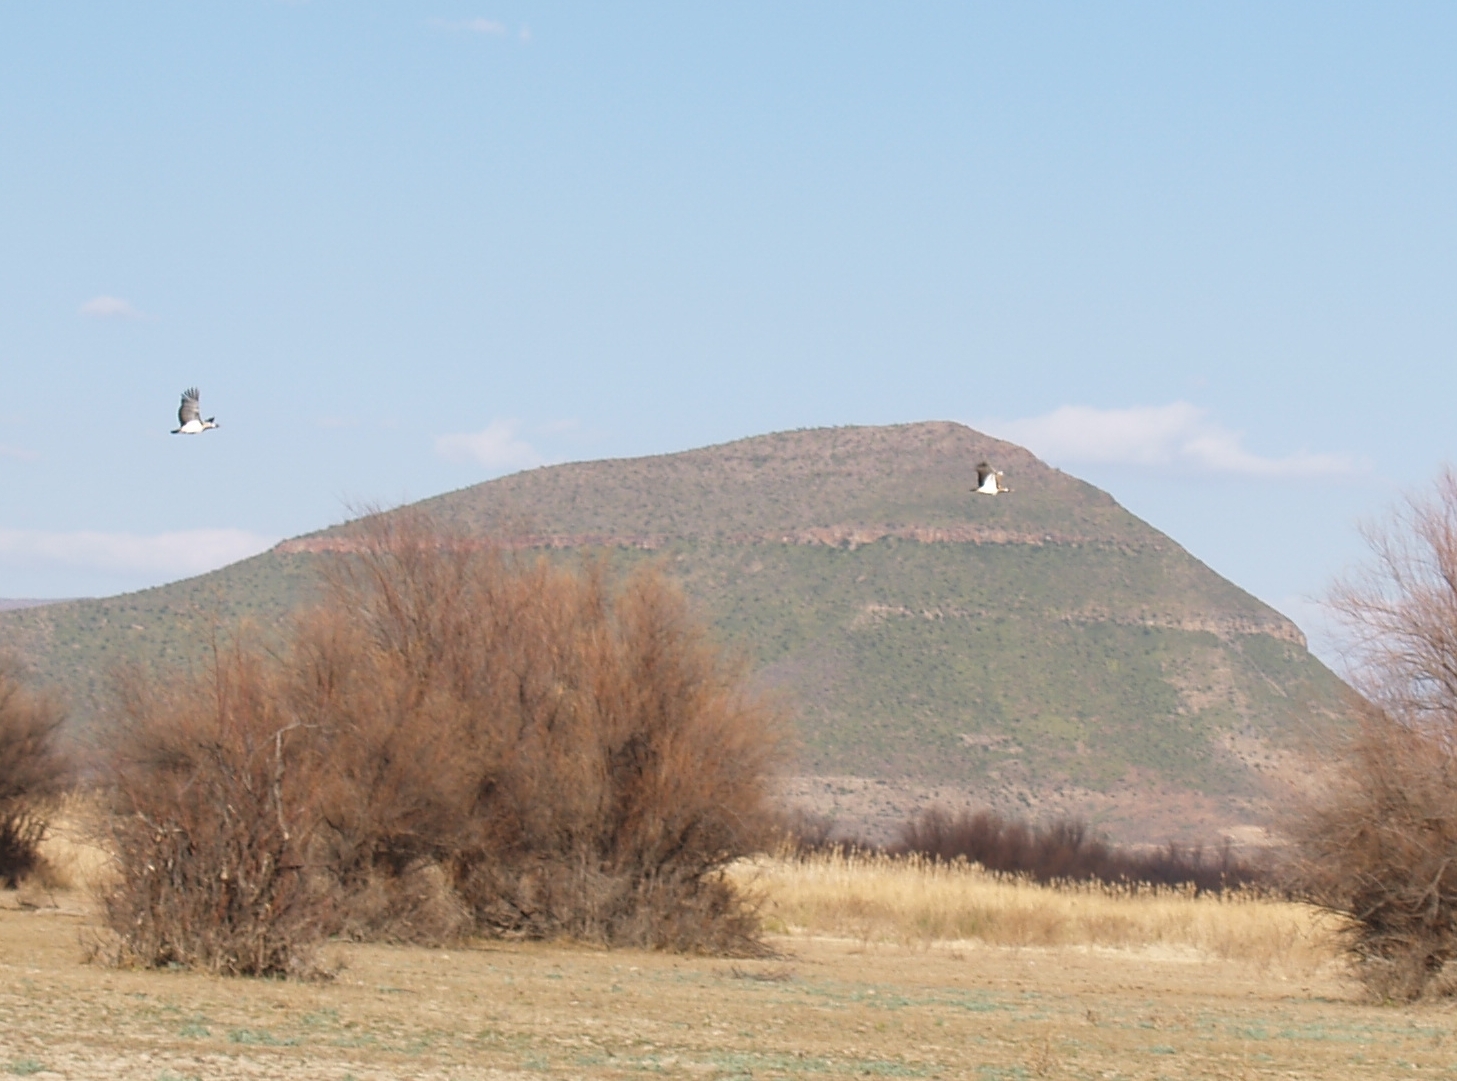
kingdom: Animalia
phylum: Chordata
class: Aves
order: Otidiformes
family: Otididae
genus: Neotis
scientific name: Neotis ludwigii
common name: Ludwig's bustard
